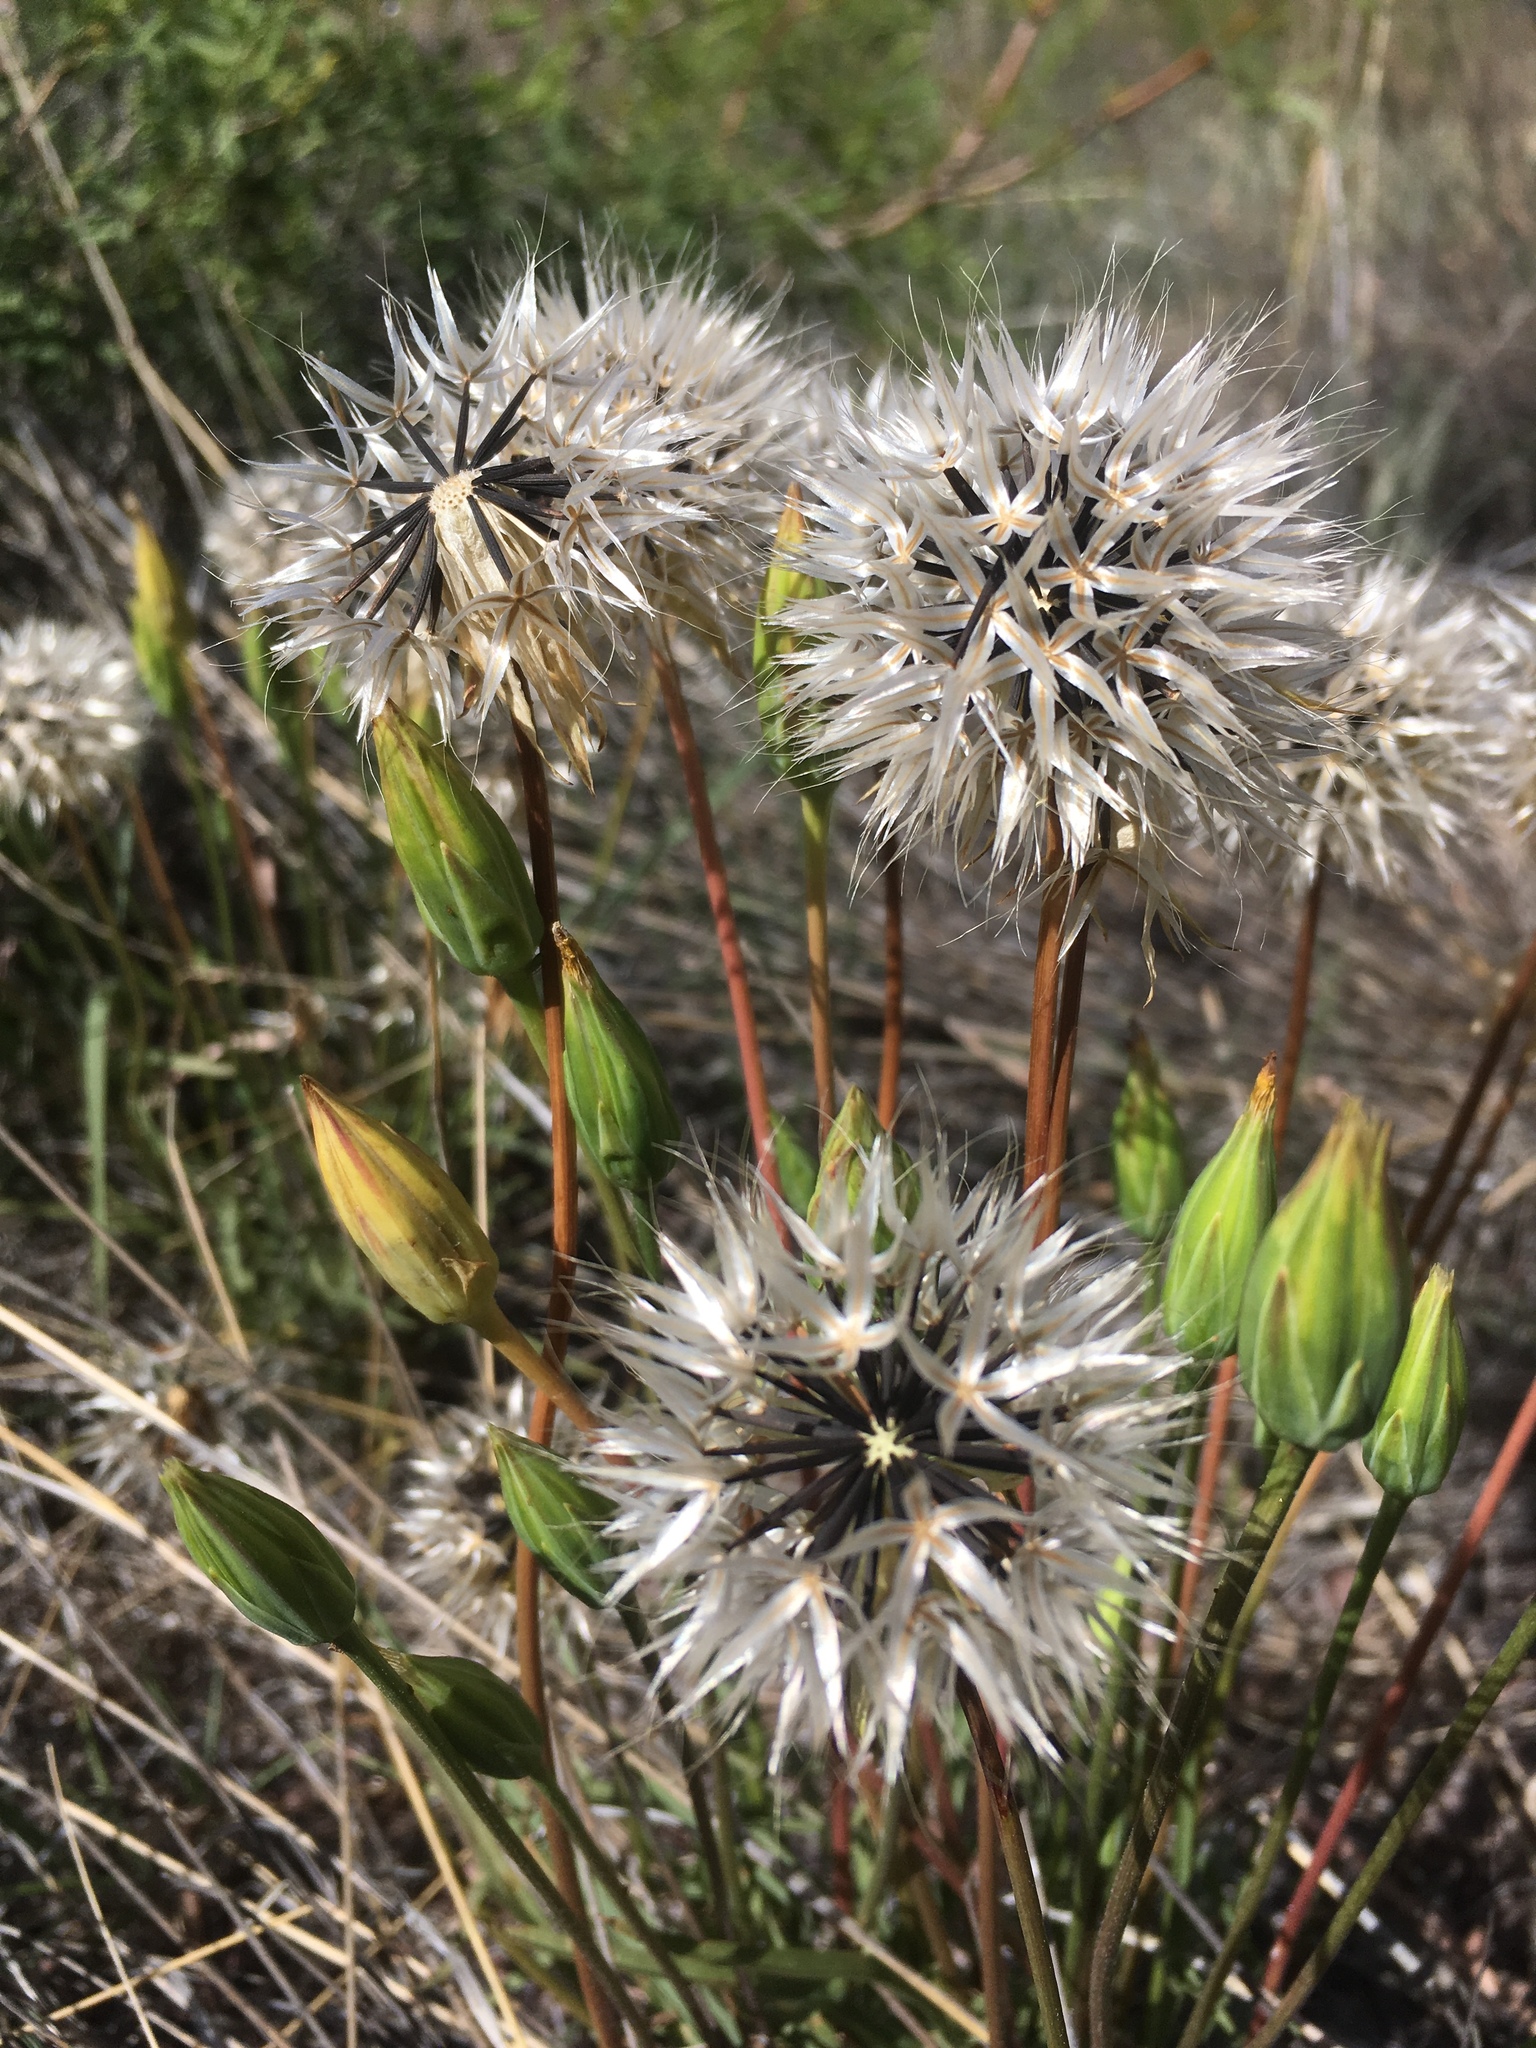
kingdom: Plantae
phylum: Tracheophyta
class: Magnoliopsida
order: Asterales
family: Asteraceae
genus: Microseris
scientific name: Microseris lindleyi
